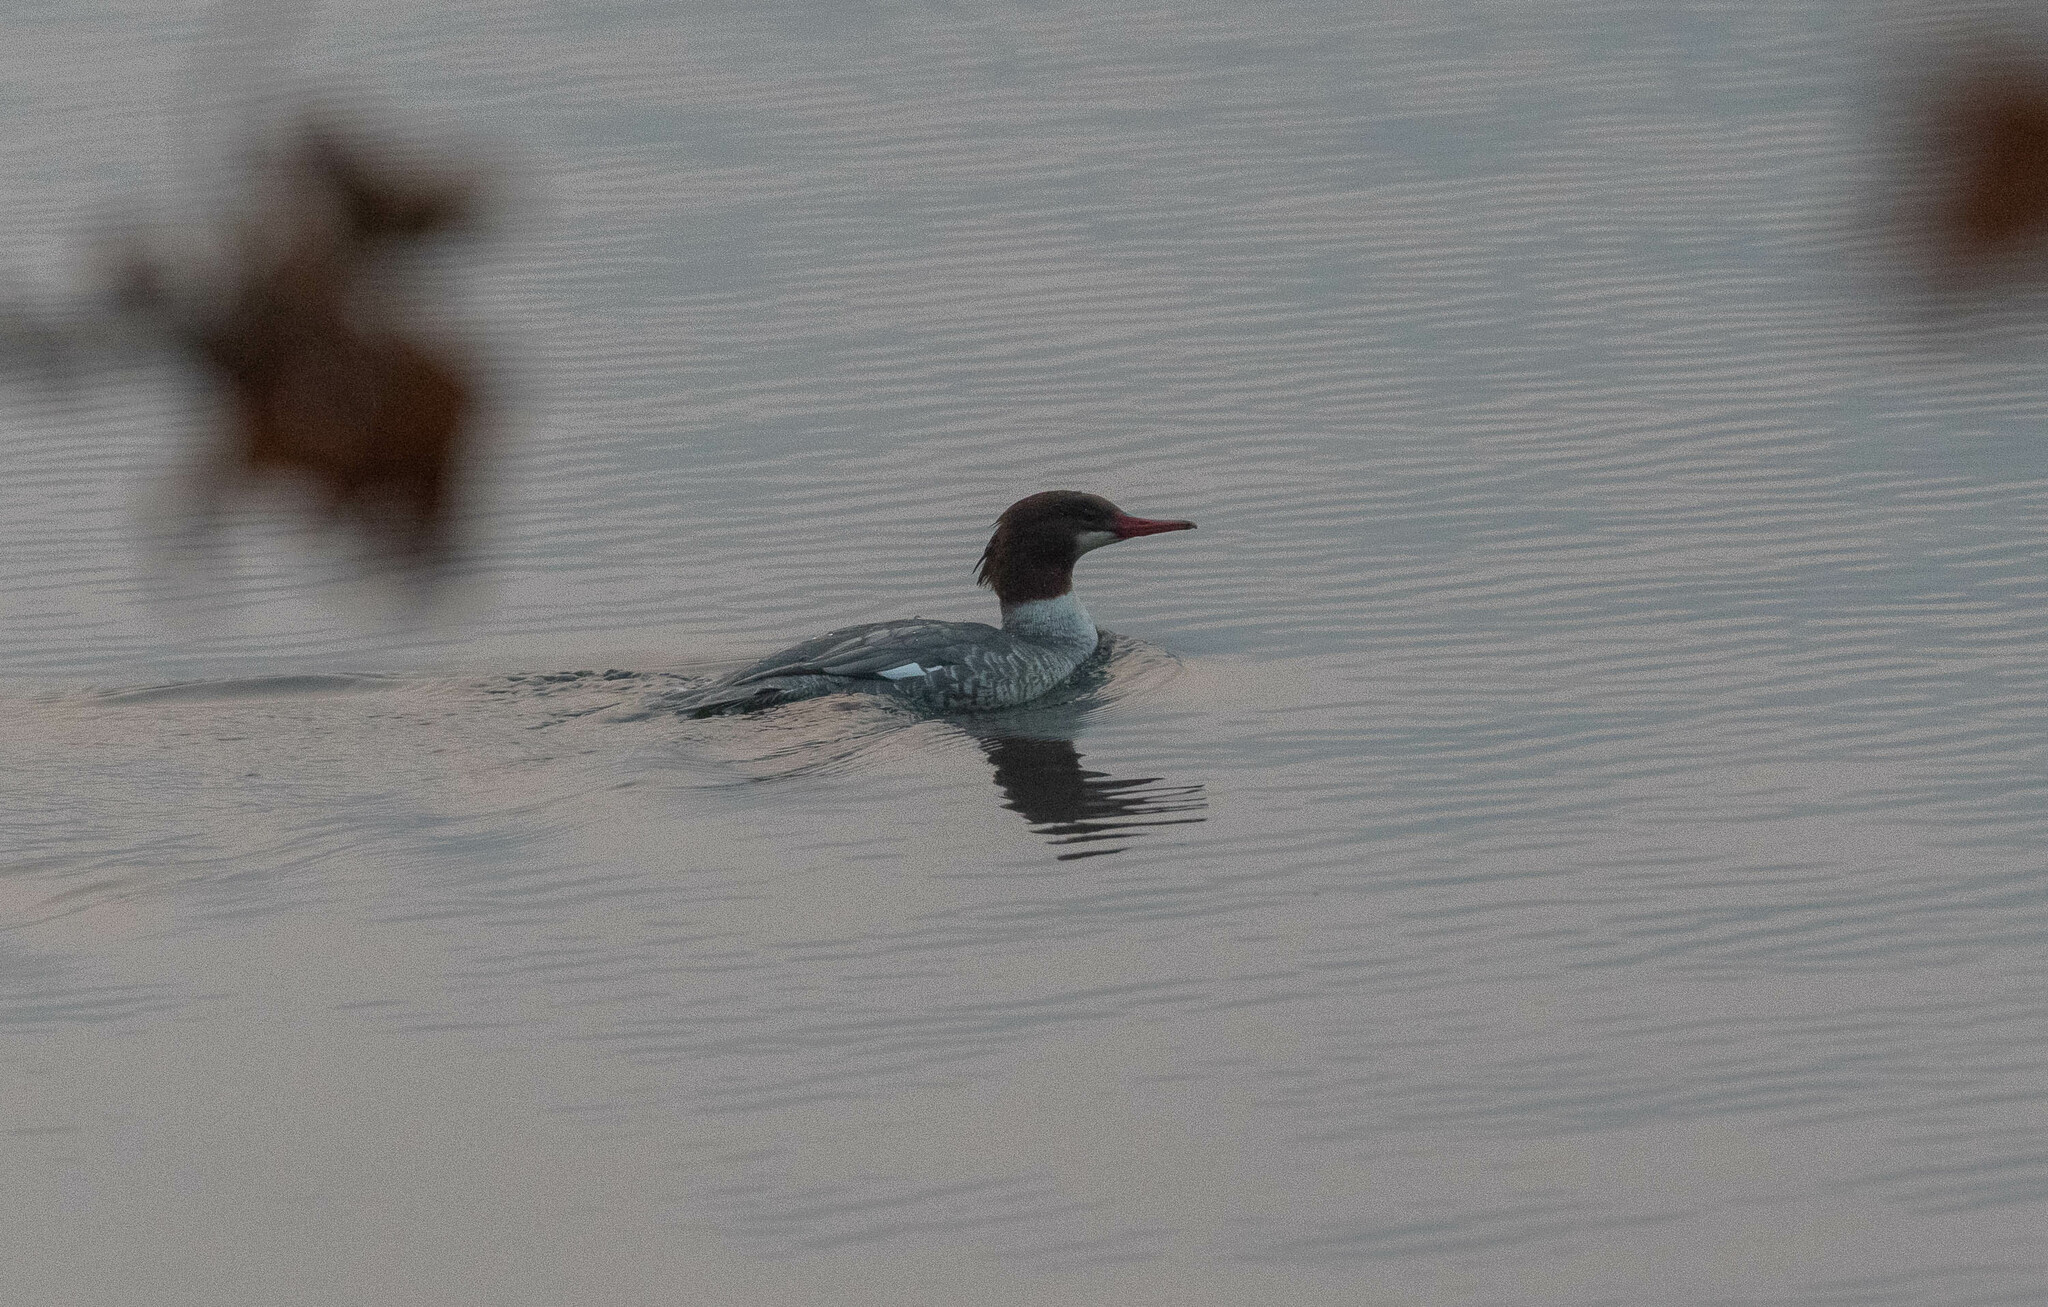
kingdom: Animalia
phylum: Chordata
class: Aves
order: Anseriformes
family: Anatidae
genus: Mergus
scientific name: Mergus merganser
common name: Common merganser
